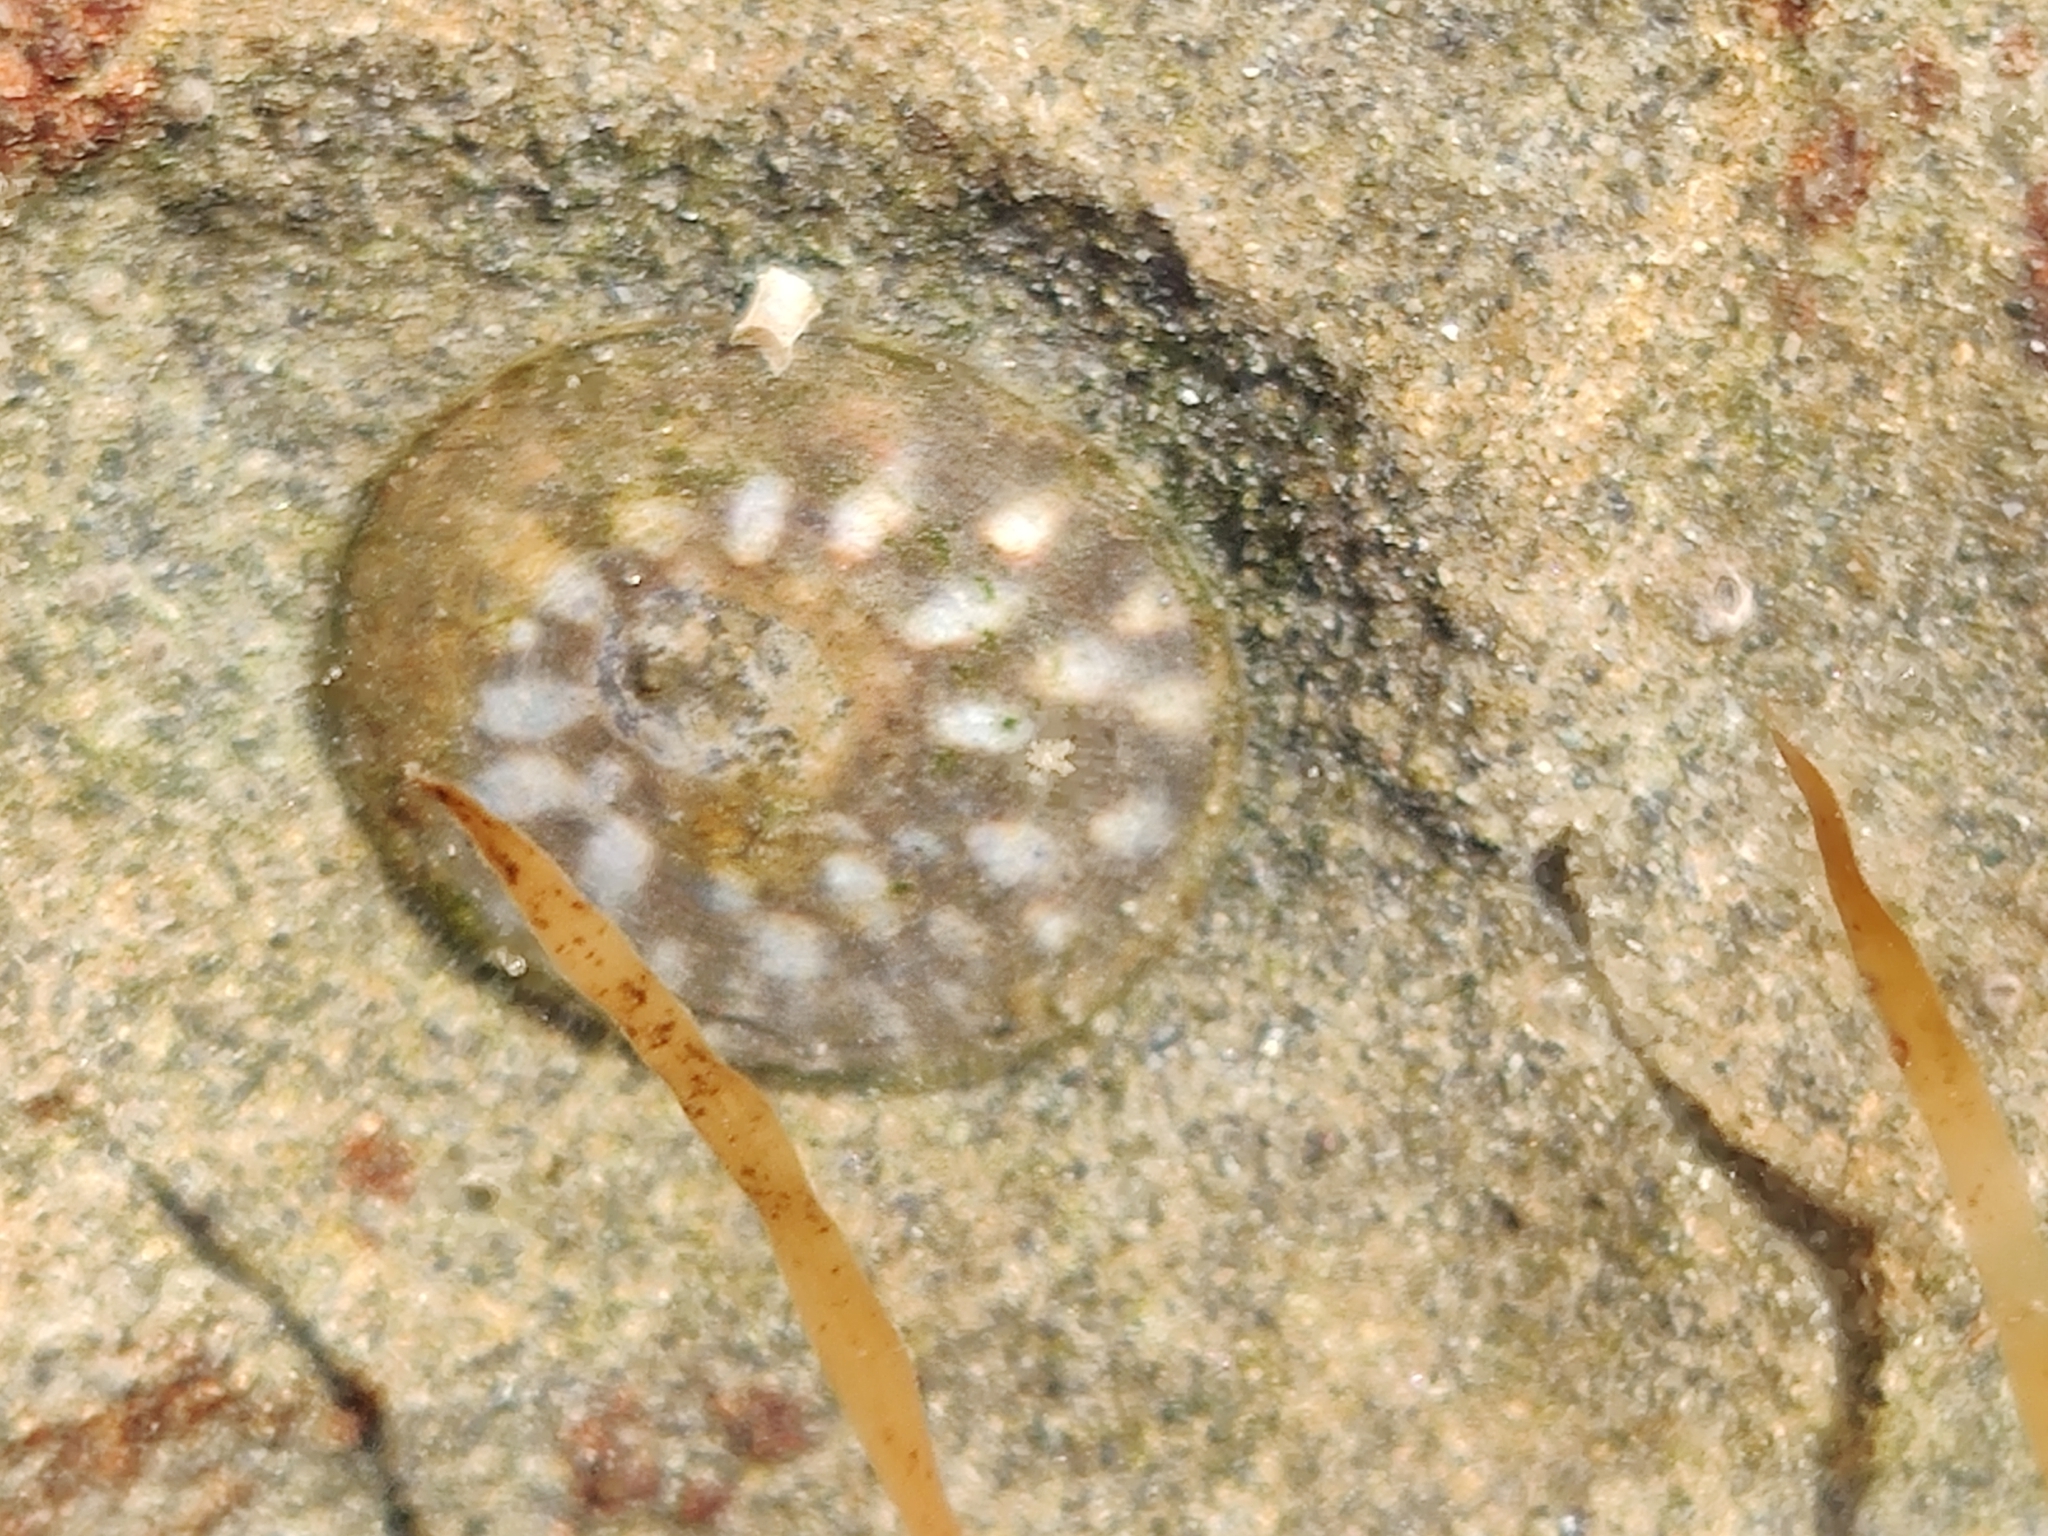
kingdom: Animalia
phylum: Mollusca
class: Gastropoda
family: Lottiidae
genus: Lottia
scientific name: Lottia scutum
